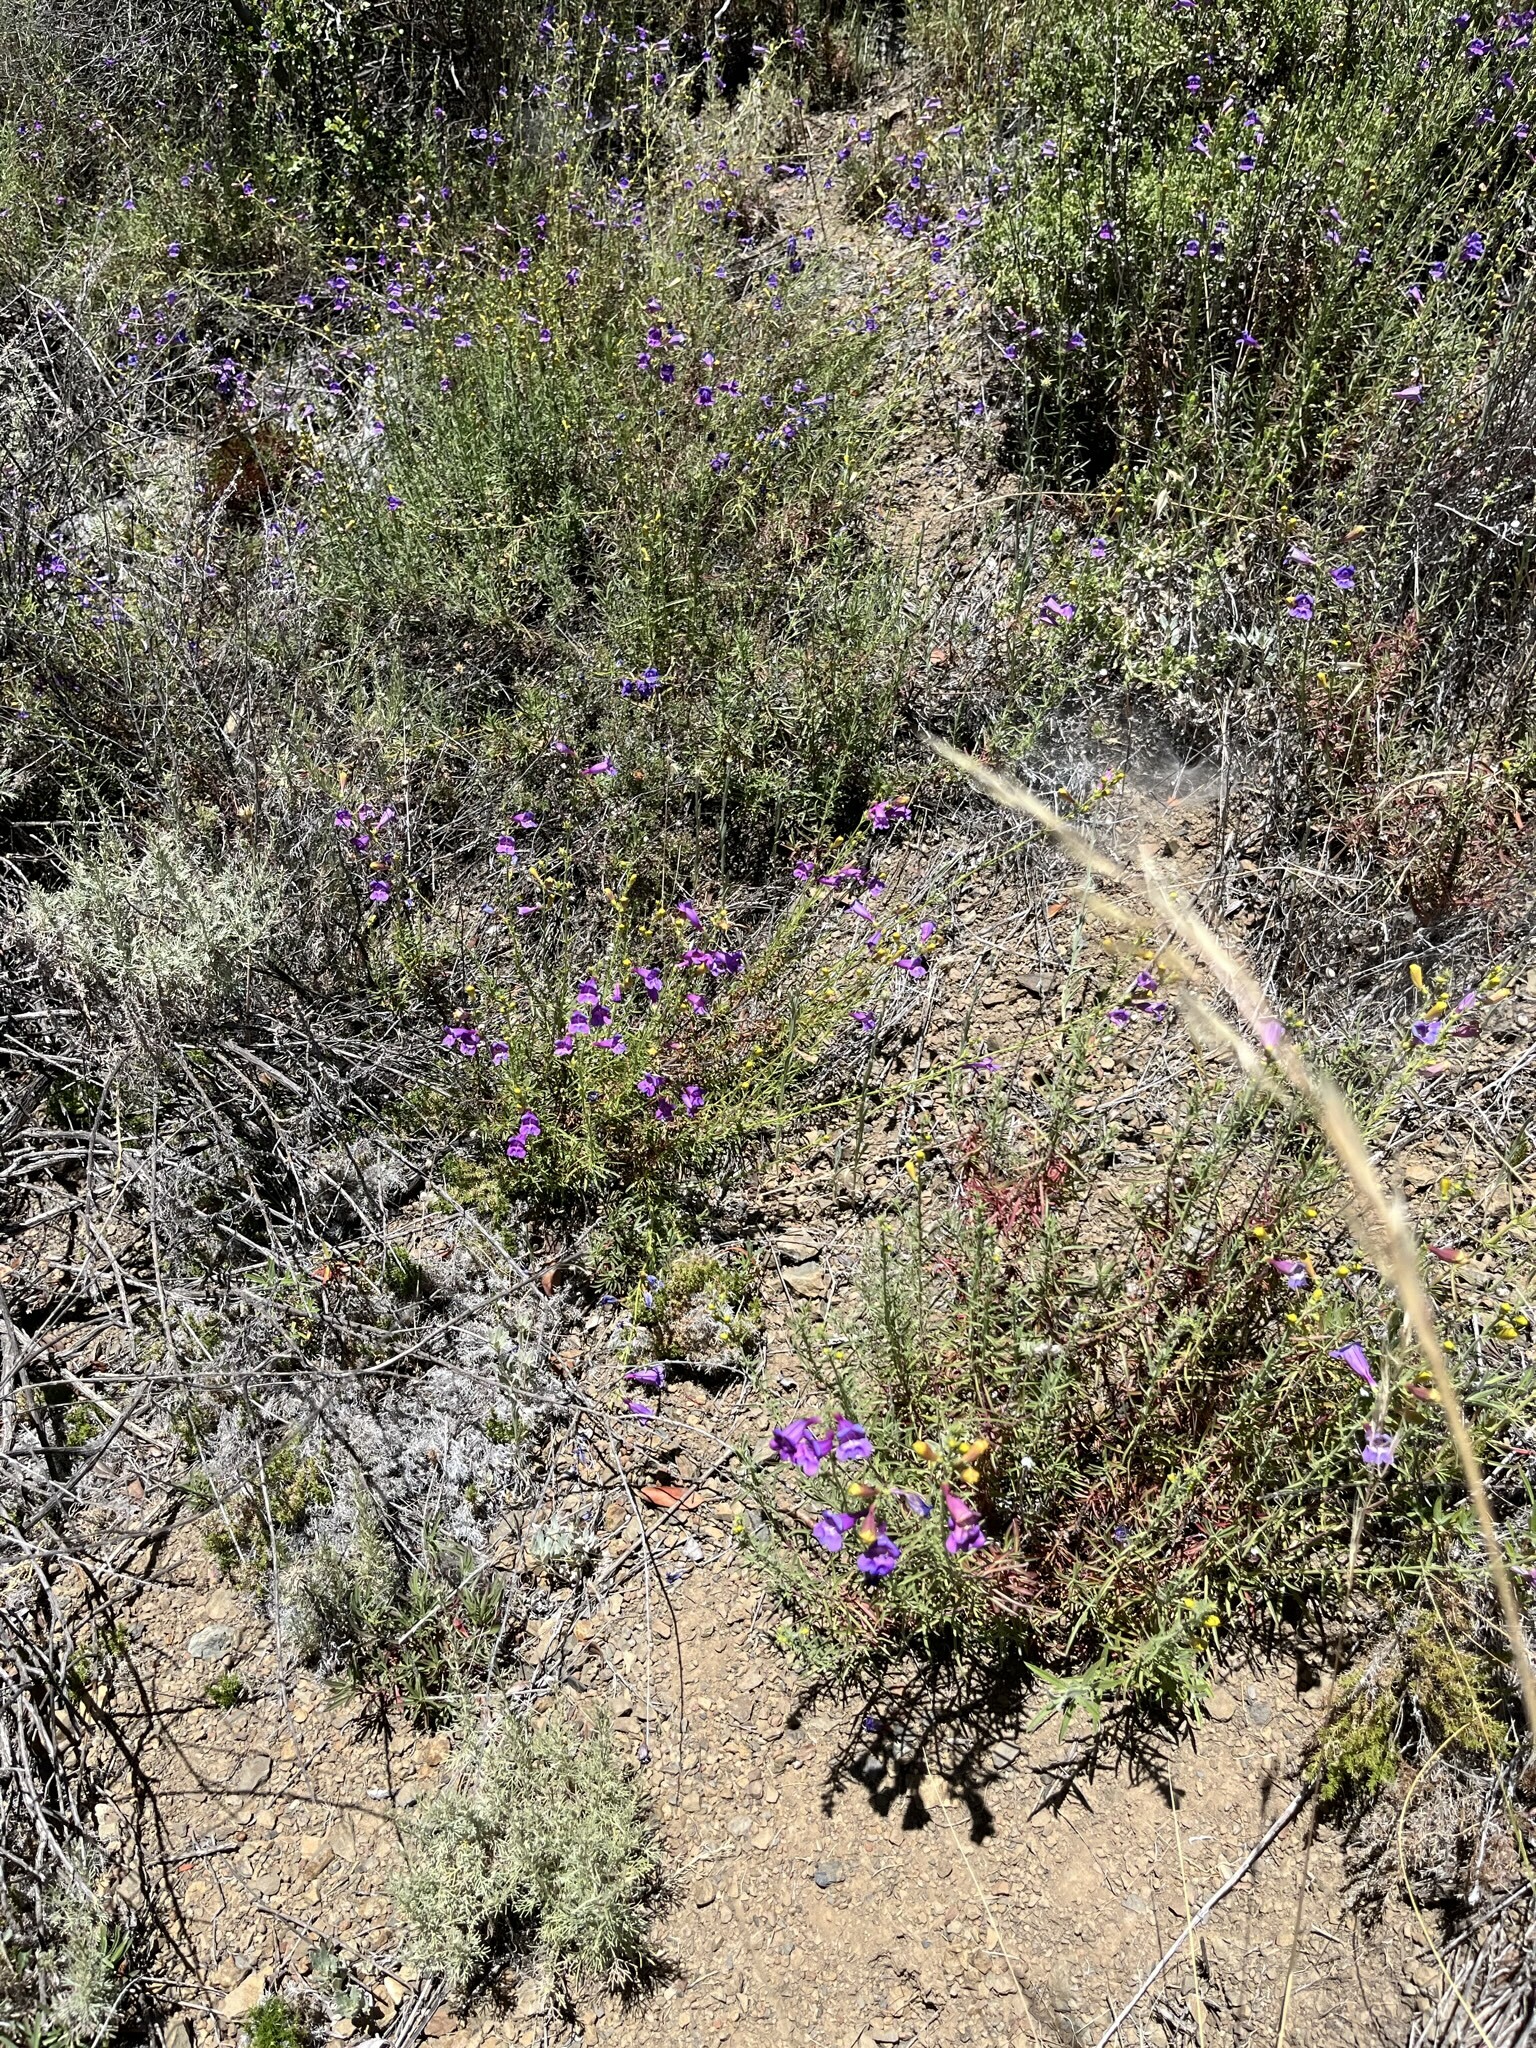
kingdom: Plantae
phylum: Tracheophyta
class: Magnoliopsida
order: Lamiales
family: Plantaginaceae
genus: Penstemon
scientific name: Penstemon heterophyllus
